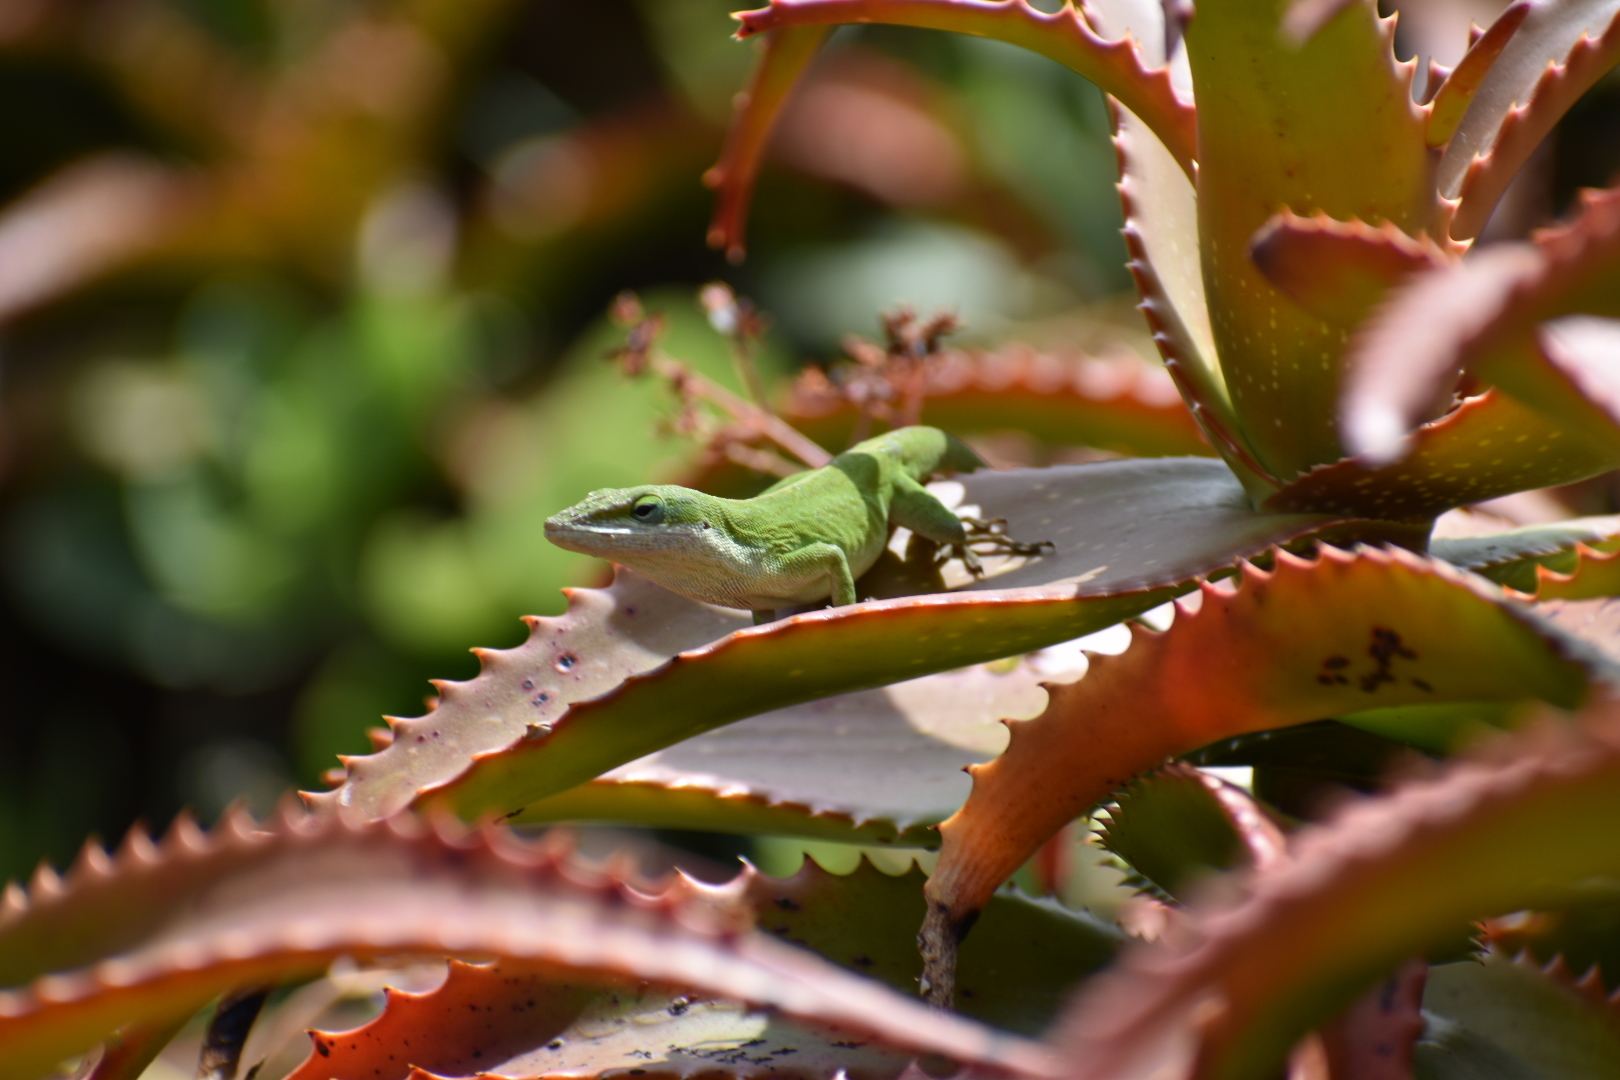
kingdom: Animalia
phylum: Chordata
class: Squamata
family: Dactyloidae
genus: Anolis
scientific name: Anolis carolinensis
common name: Green anole
